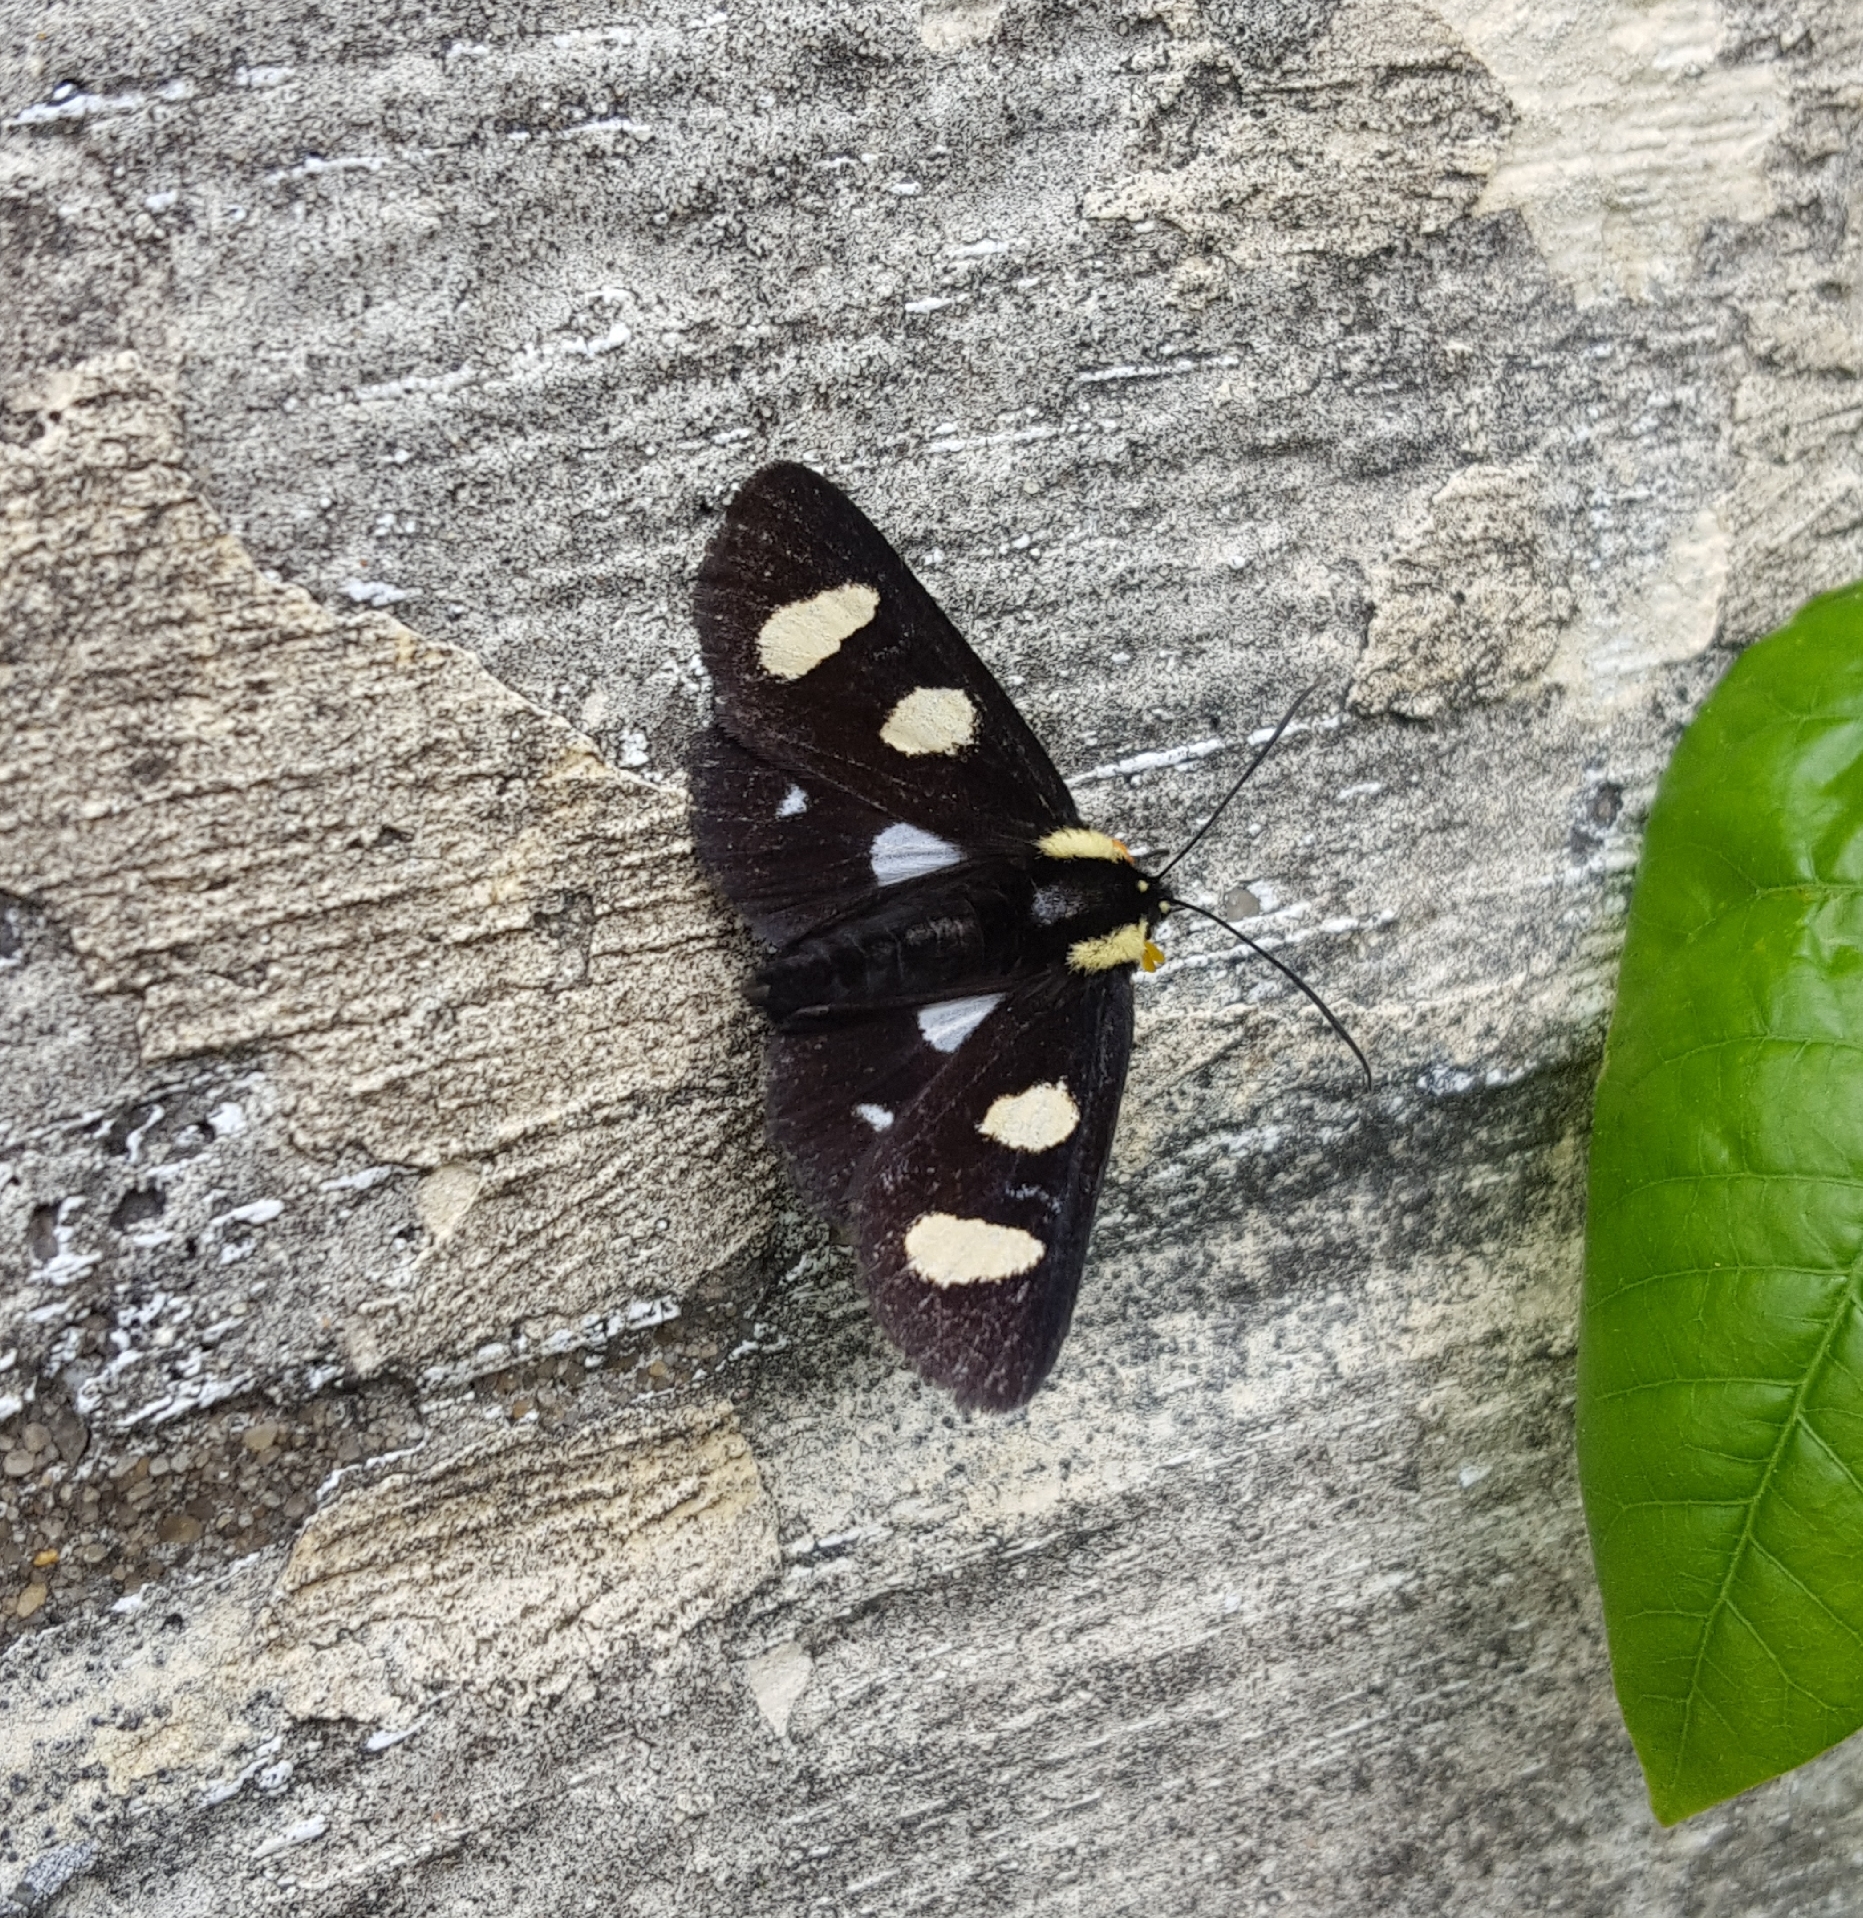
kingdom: Animalia
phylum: Arthropoda
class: Insecta
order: Lepidoptera
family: Noctuidae
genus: Alypia
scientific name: Alypia octomaculata
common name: Eight-spotted forester
